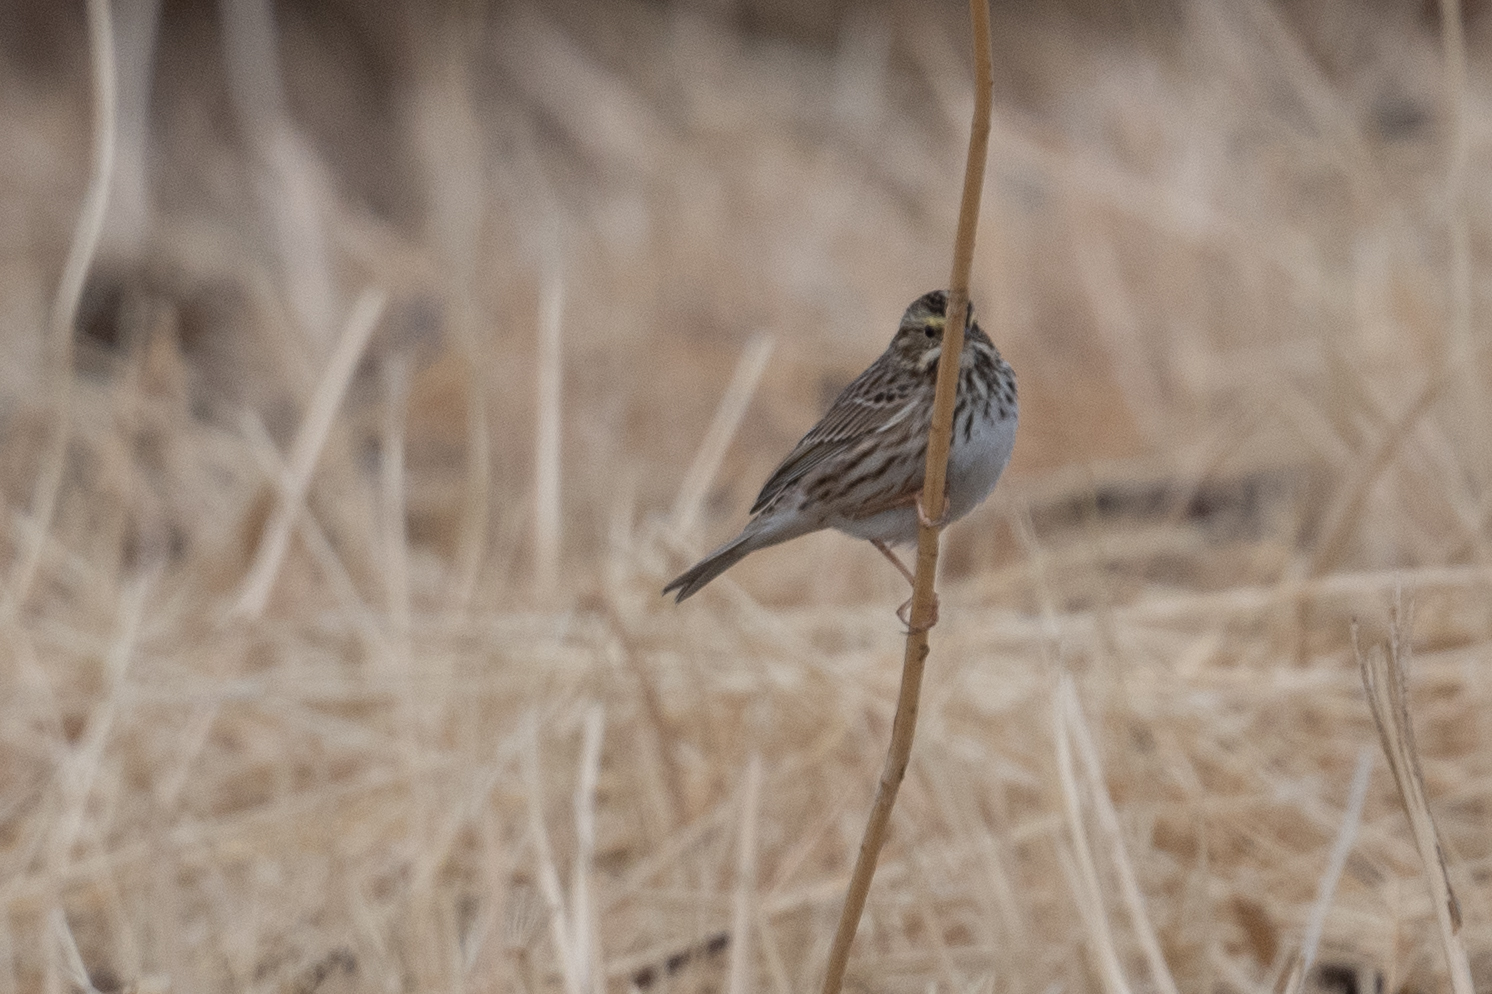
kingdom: Animalia
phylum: Chordata
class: Aves
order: Passeriformes
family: Passerellidae
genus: Passerculus
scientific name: Passerculus sandwichensis
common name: Savannah sparrow
